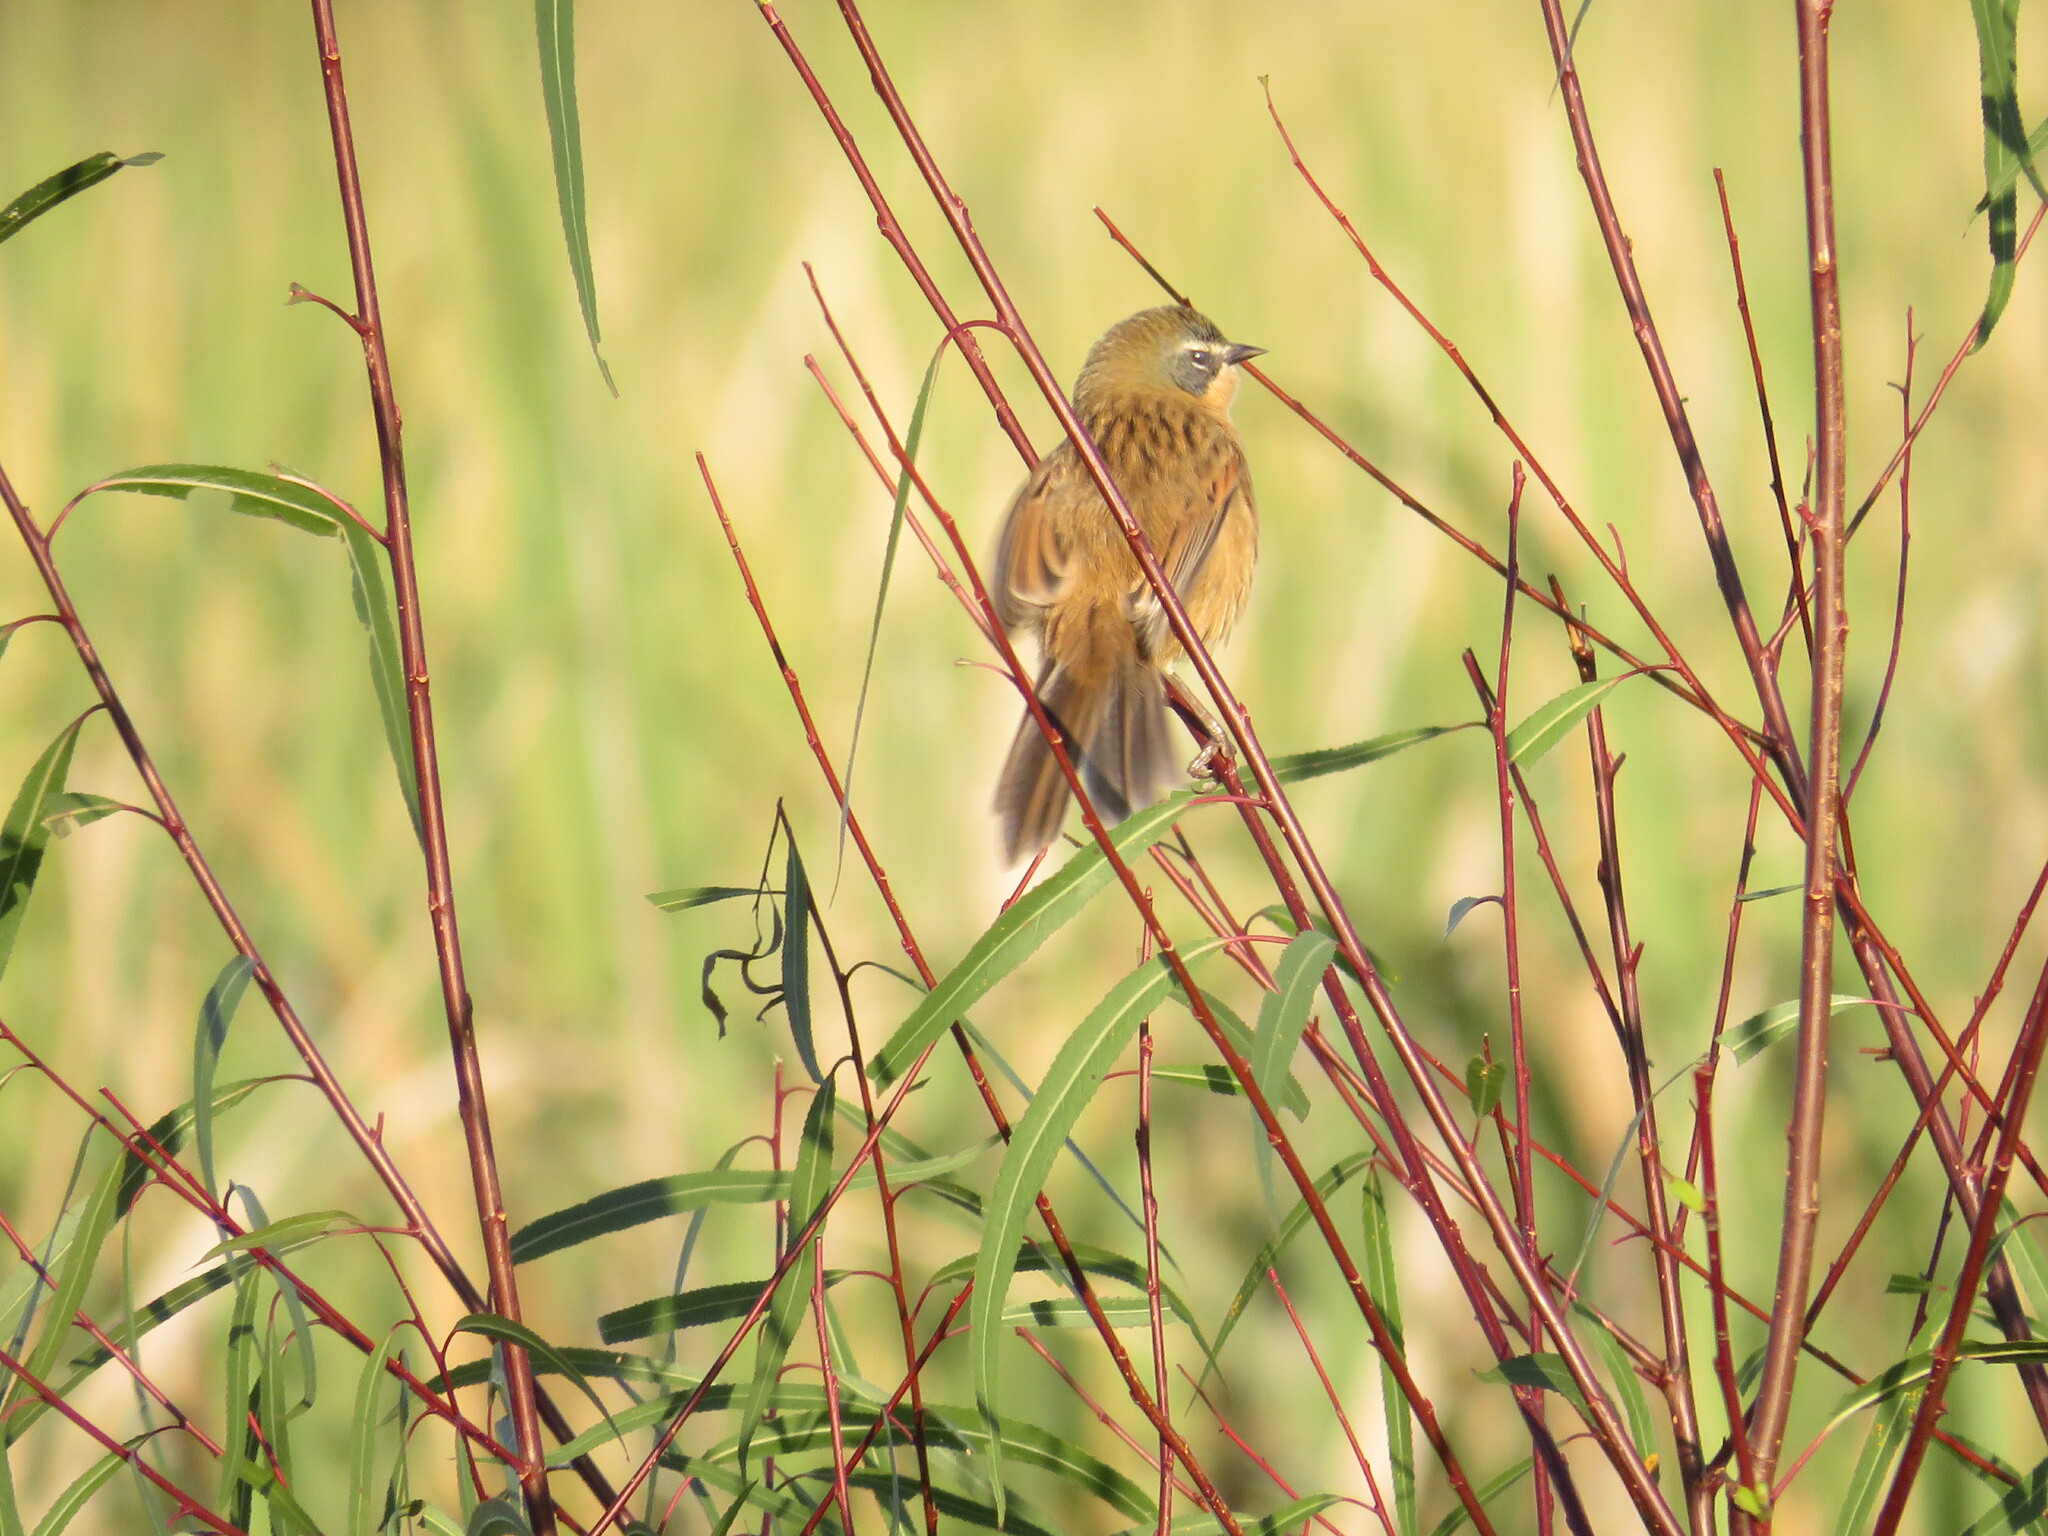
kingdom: Animalia
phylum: Chordata
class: Aves
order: Passeriformes
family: Thraupidae
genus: Donacospiza
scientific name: Donacospiza albifrons
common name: Long-tailed reed finch
